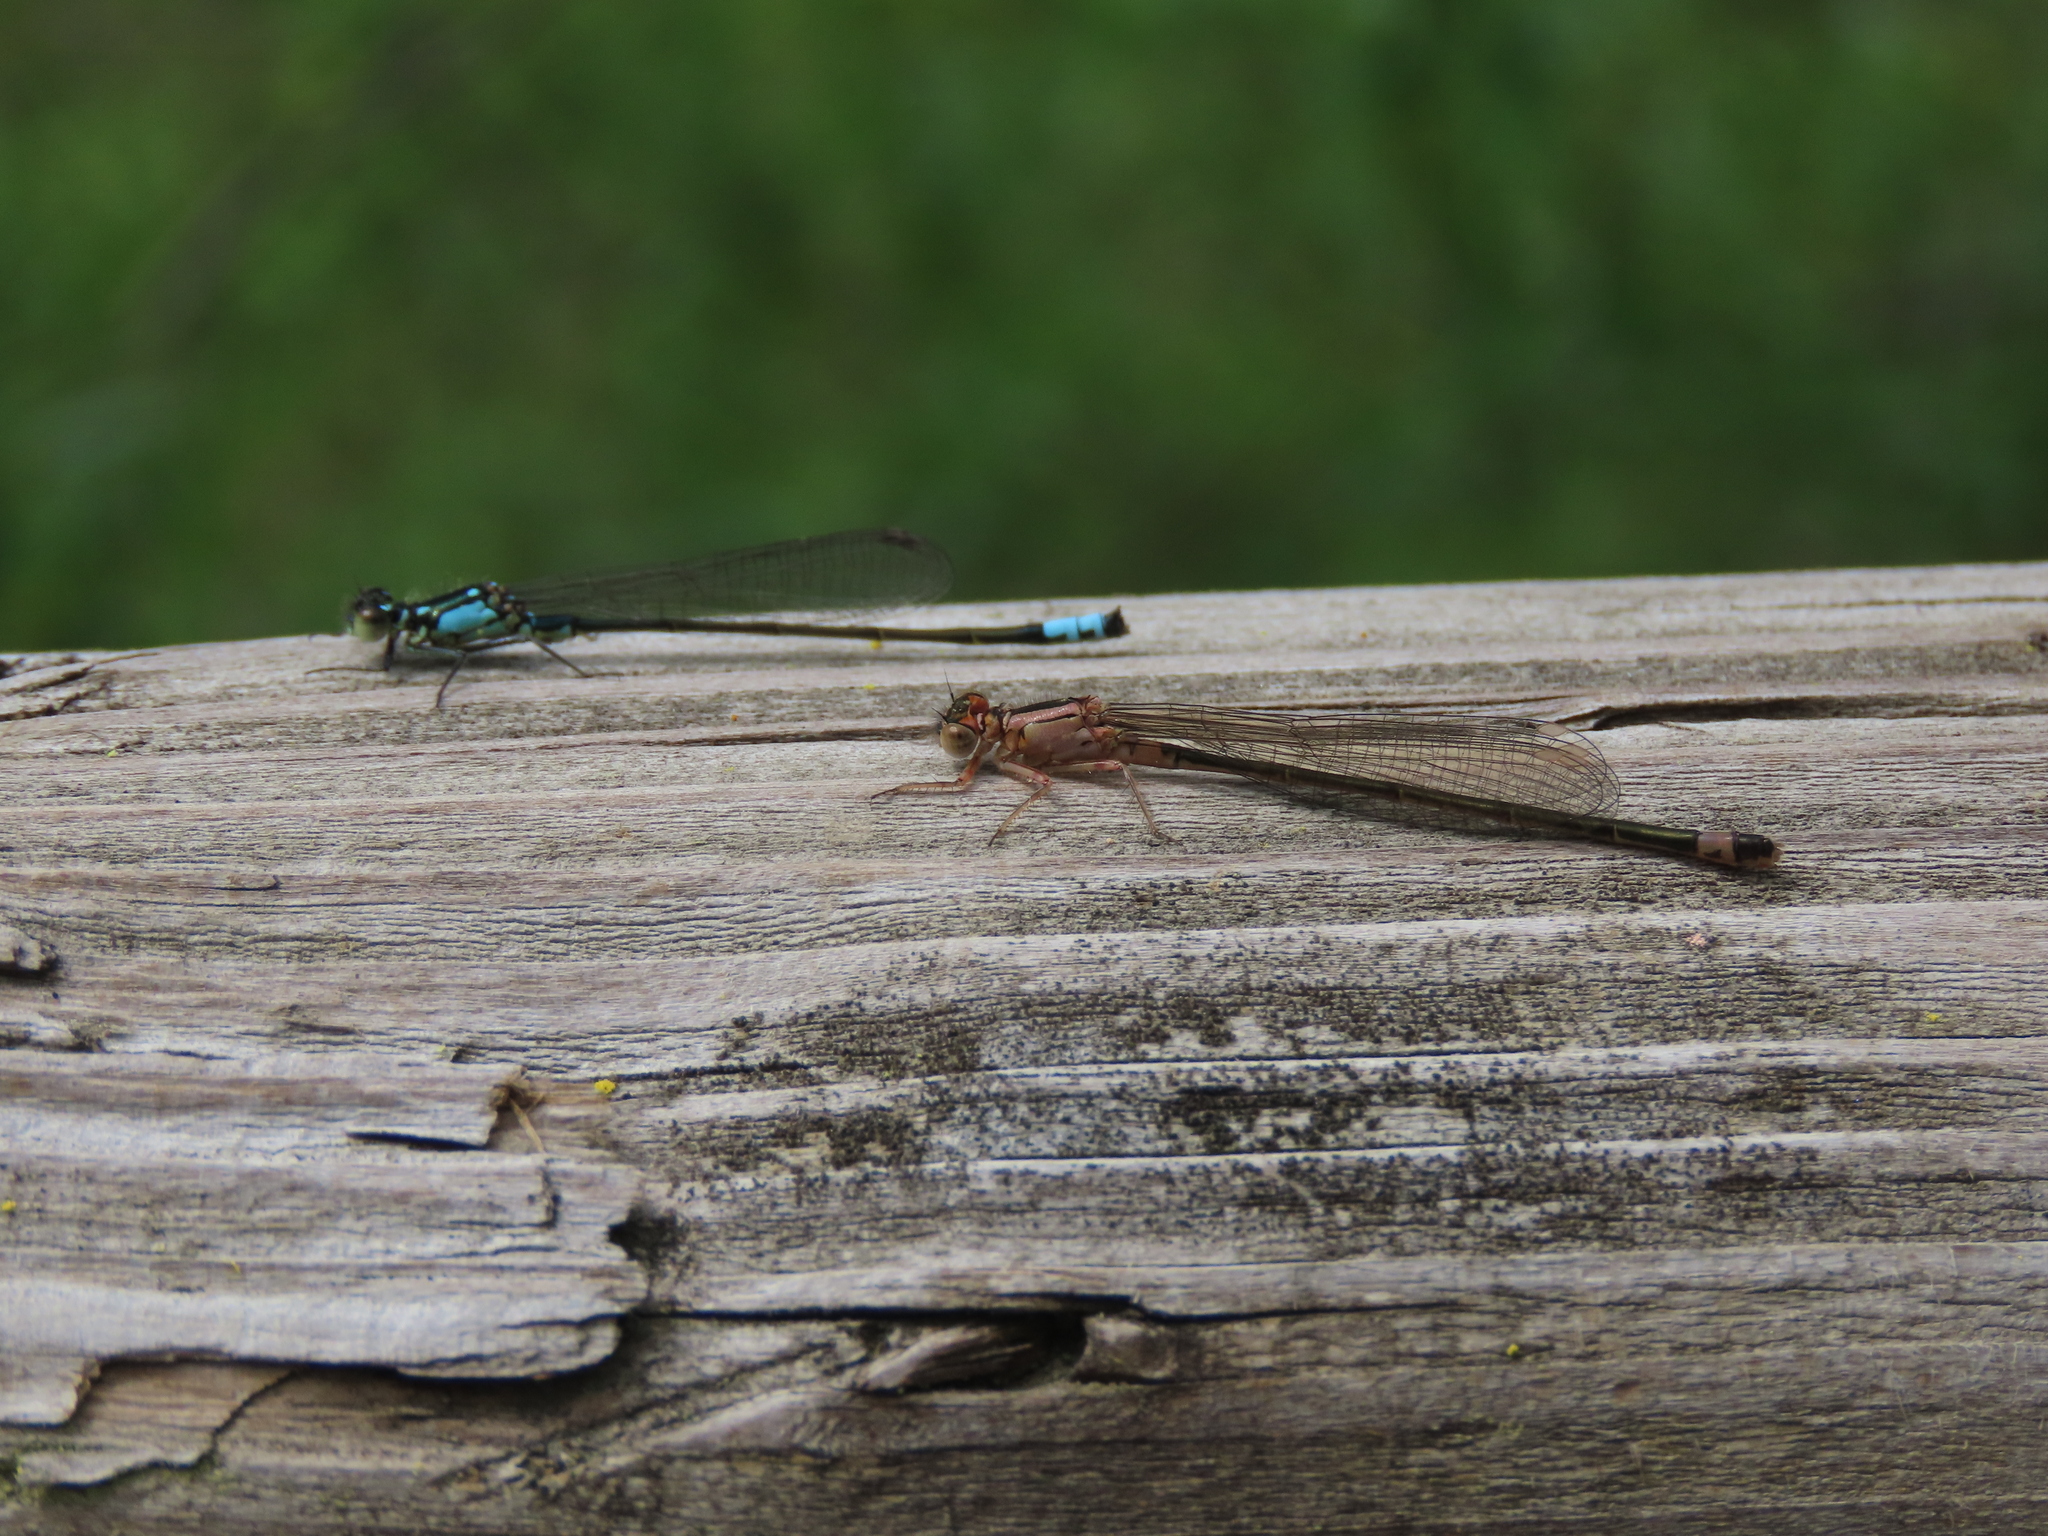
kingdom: Animalia
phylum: Arthropoda
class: Insecta
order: Odonata
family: Coenagrionidae
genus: Ischnura
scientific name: Ischnura cervula
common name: Pacific forktail
